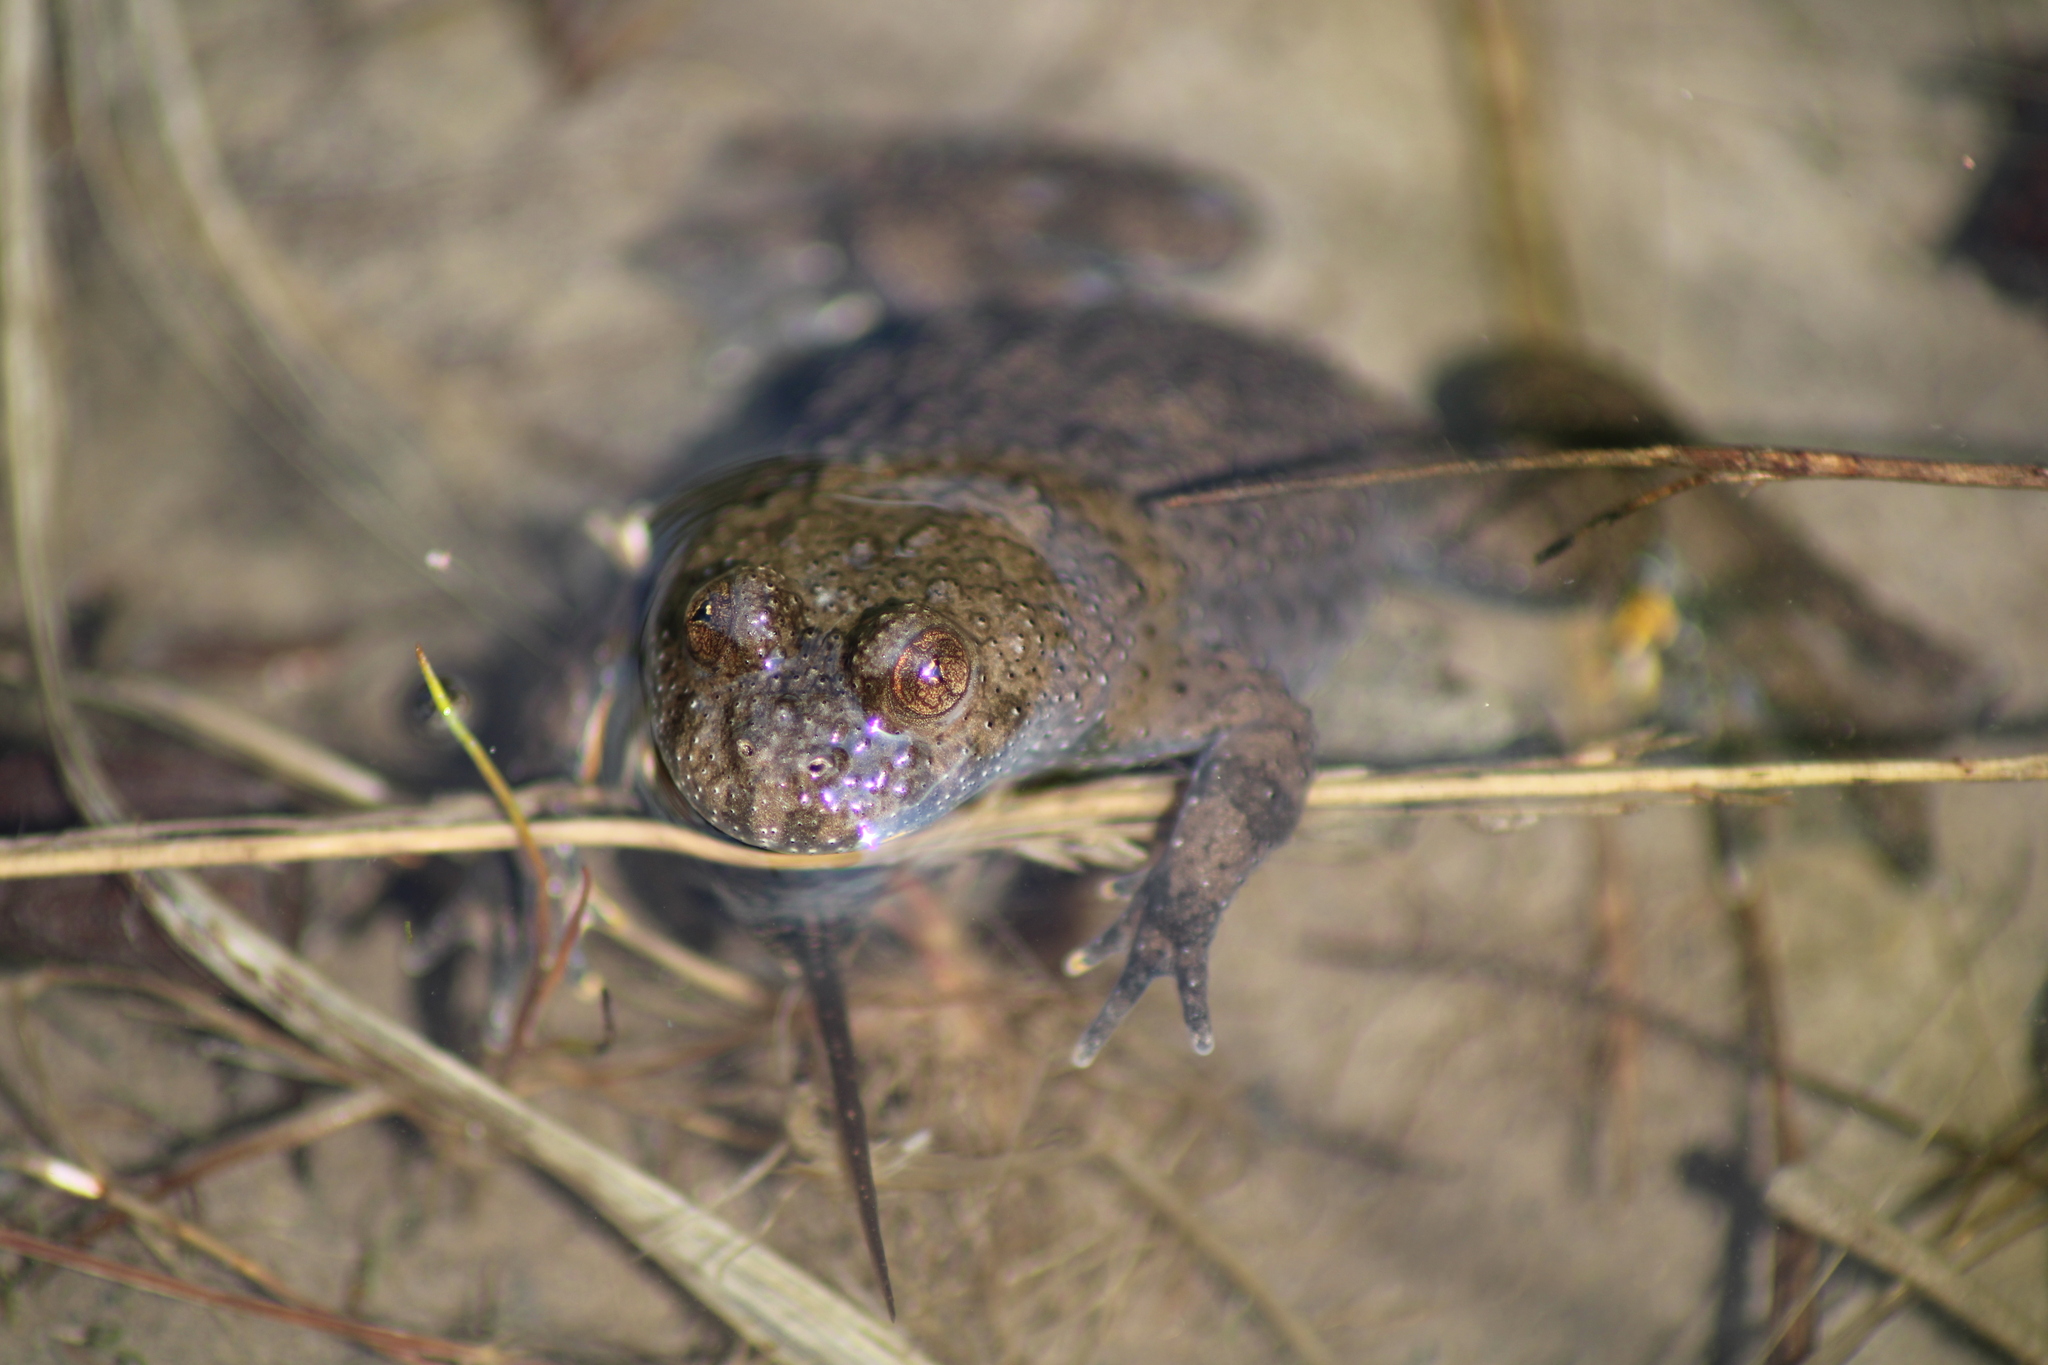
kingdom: Animalia
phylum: Chordata
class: Amphibia
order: Anura
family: Bombinatoridae
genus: Bombina
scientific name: Bombina variegata
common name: Yellow-bellied toad
